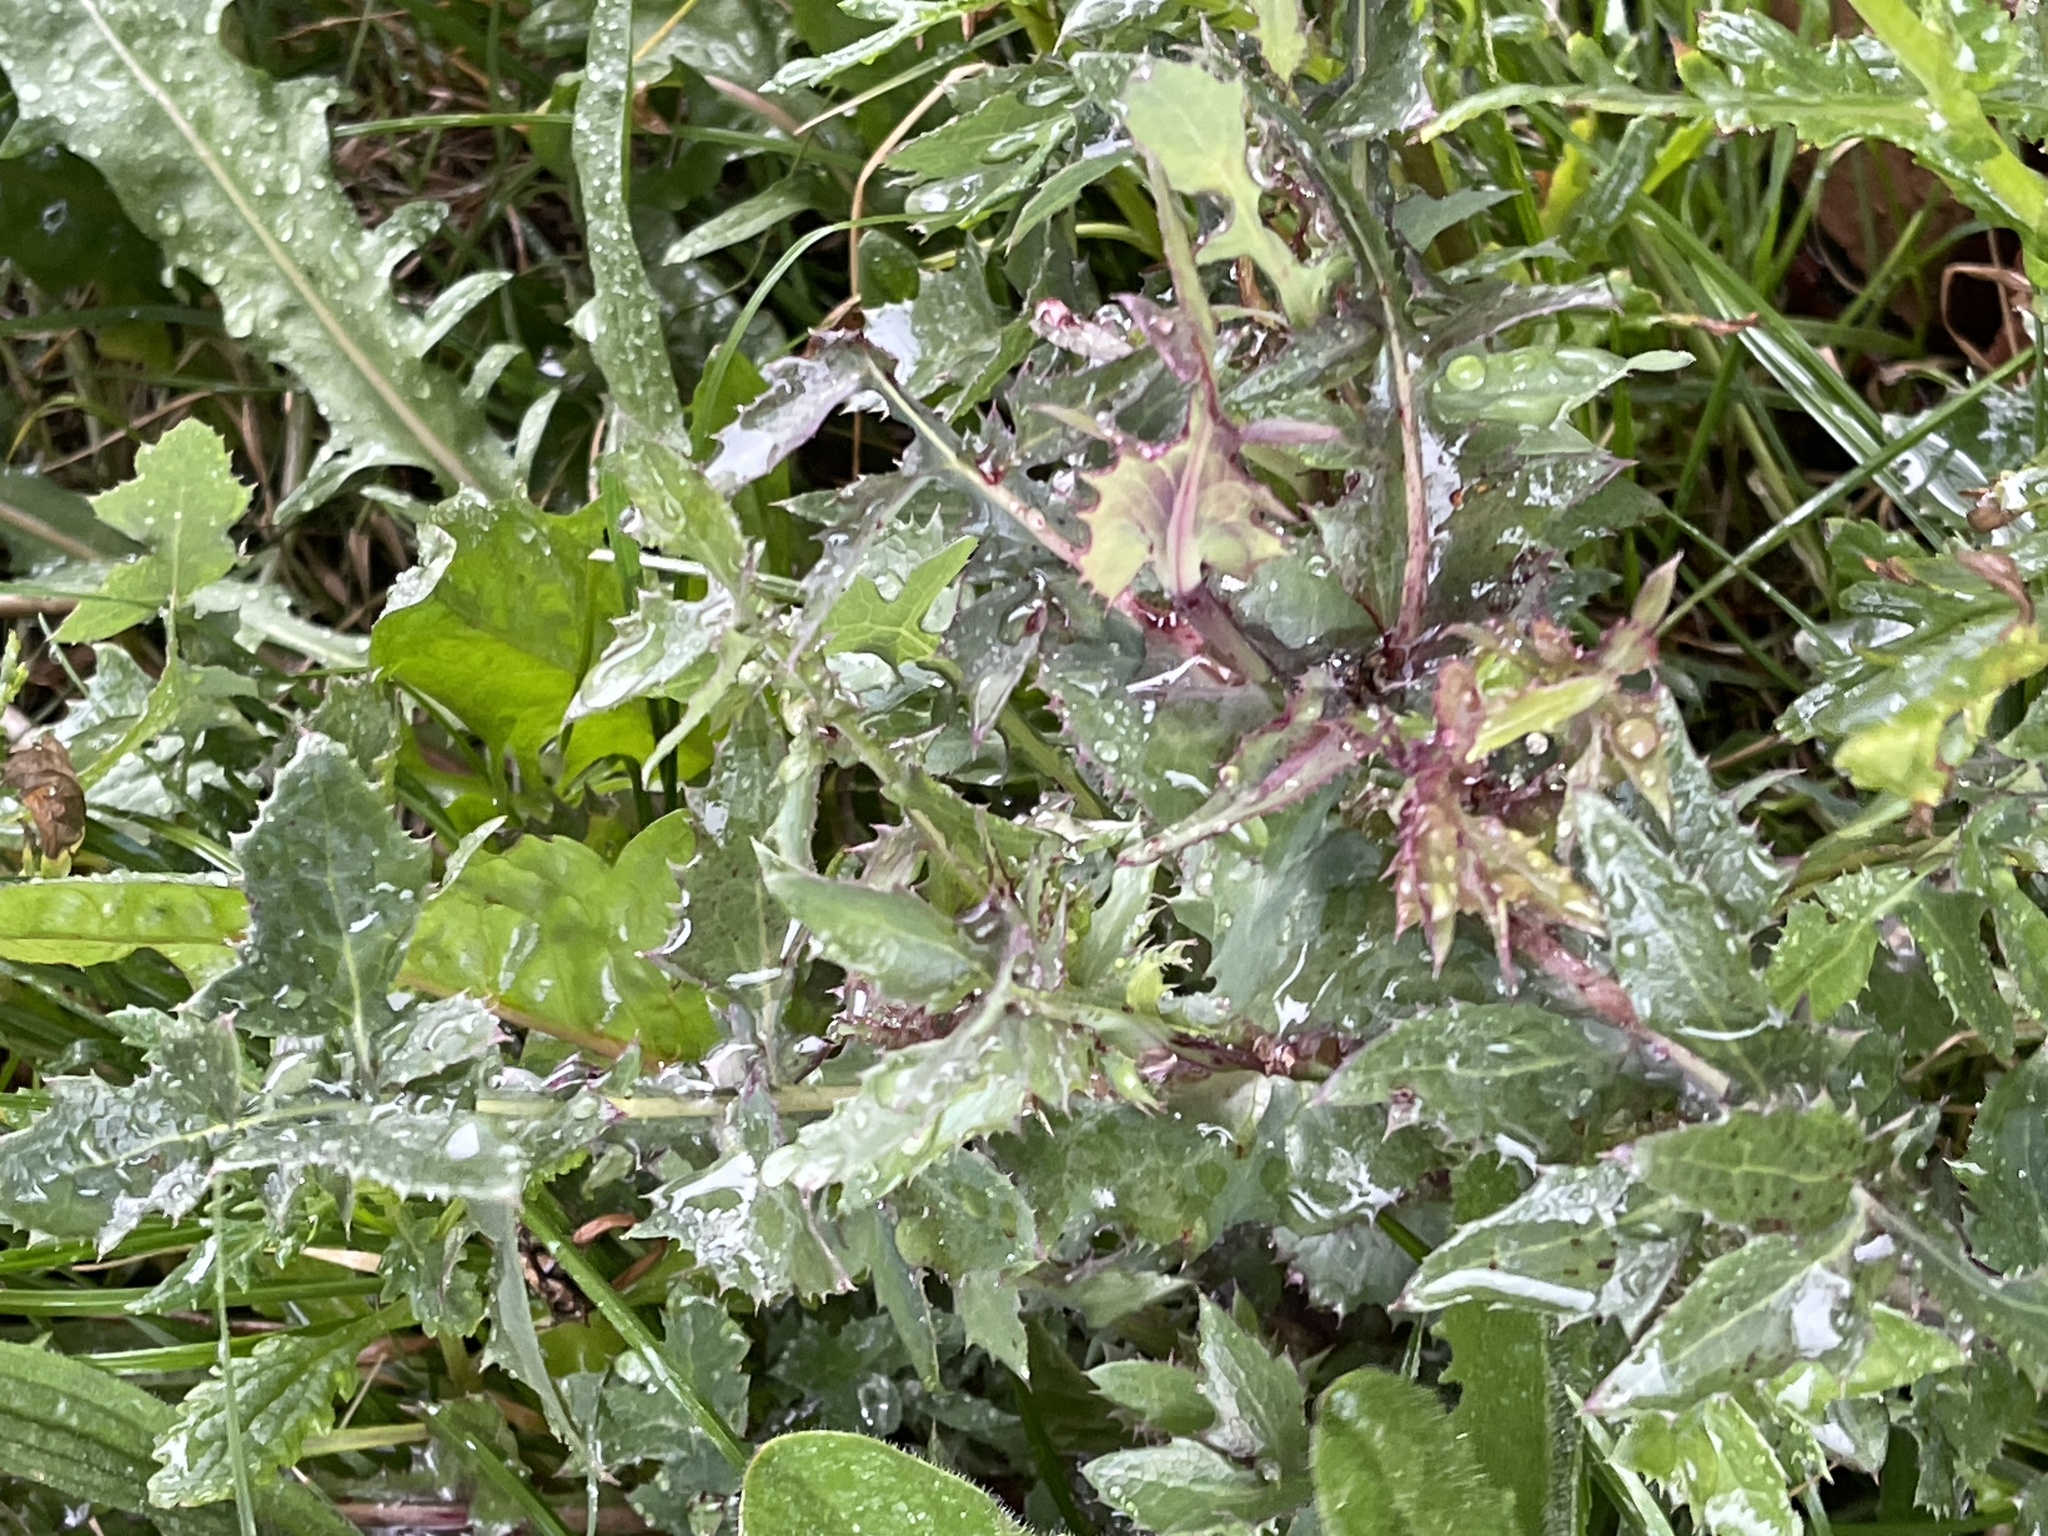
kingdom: Plantae
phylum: Tracheophyta
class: Magnoliopsida
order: Asterales
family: Asteraceae
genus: Sonchus
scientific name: Sonchus oleraceus
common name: Common sowthistle
